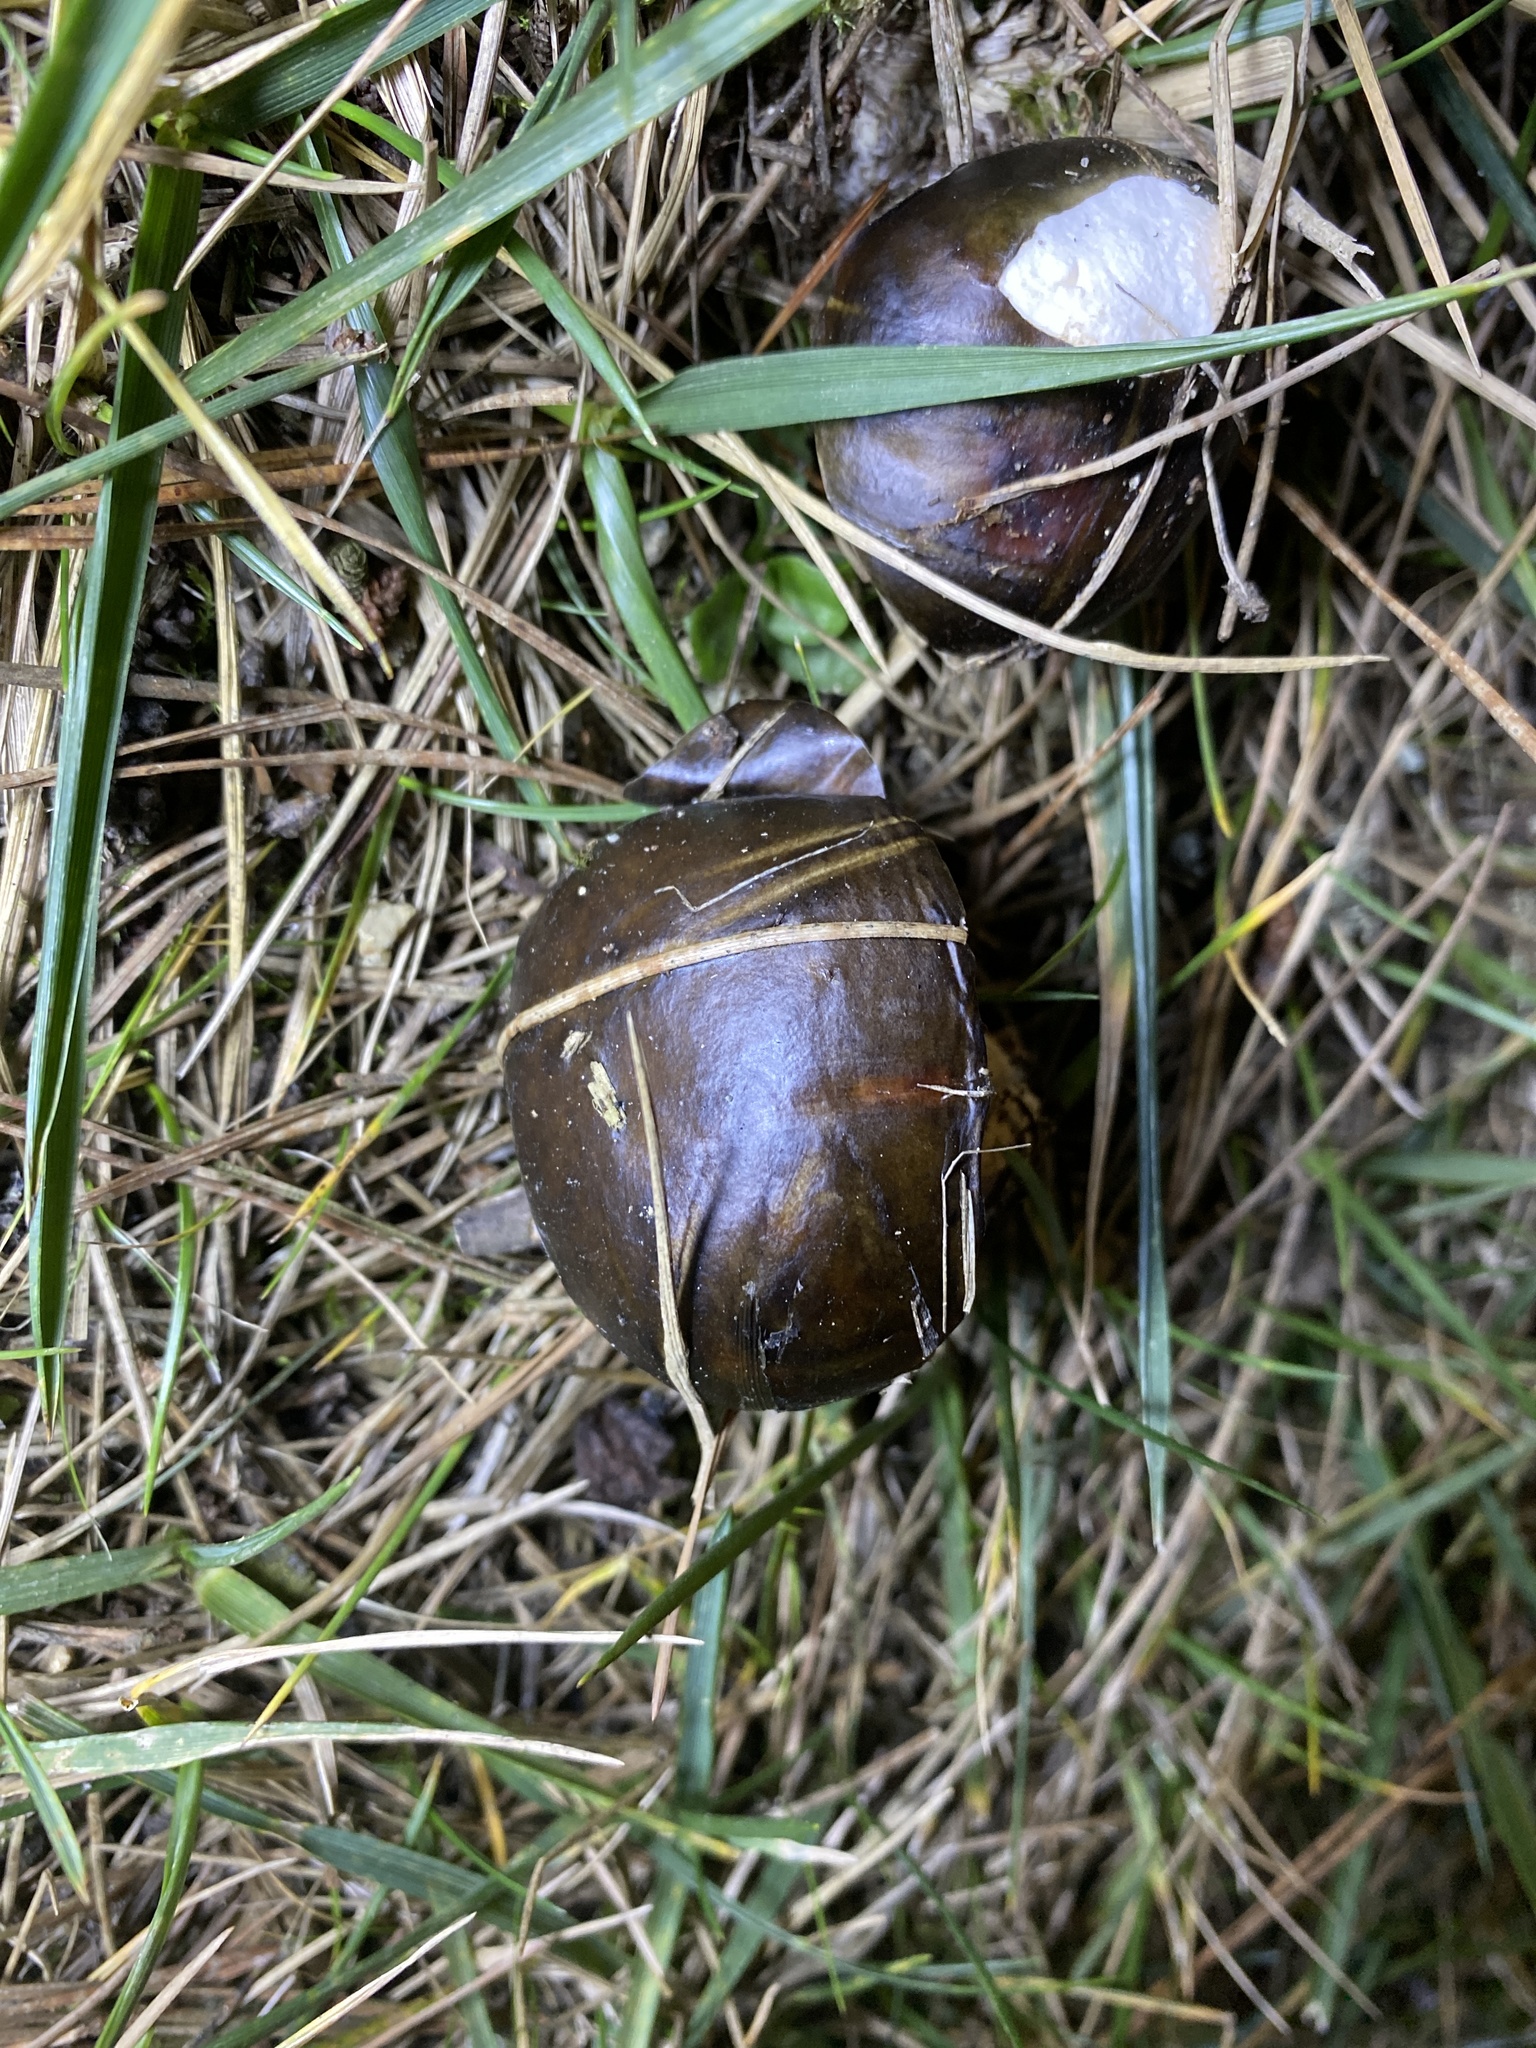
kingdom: Fungi
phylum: Basidiomycota
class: Agaricomycetes
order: Boletales
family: Suillaceae
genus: Suillus
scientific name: Suillus pungens
